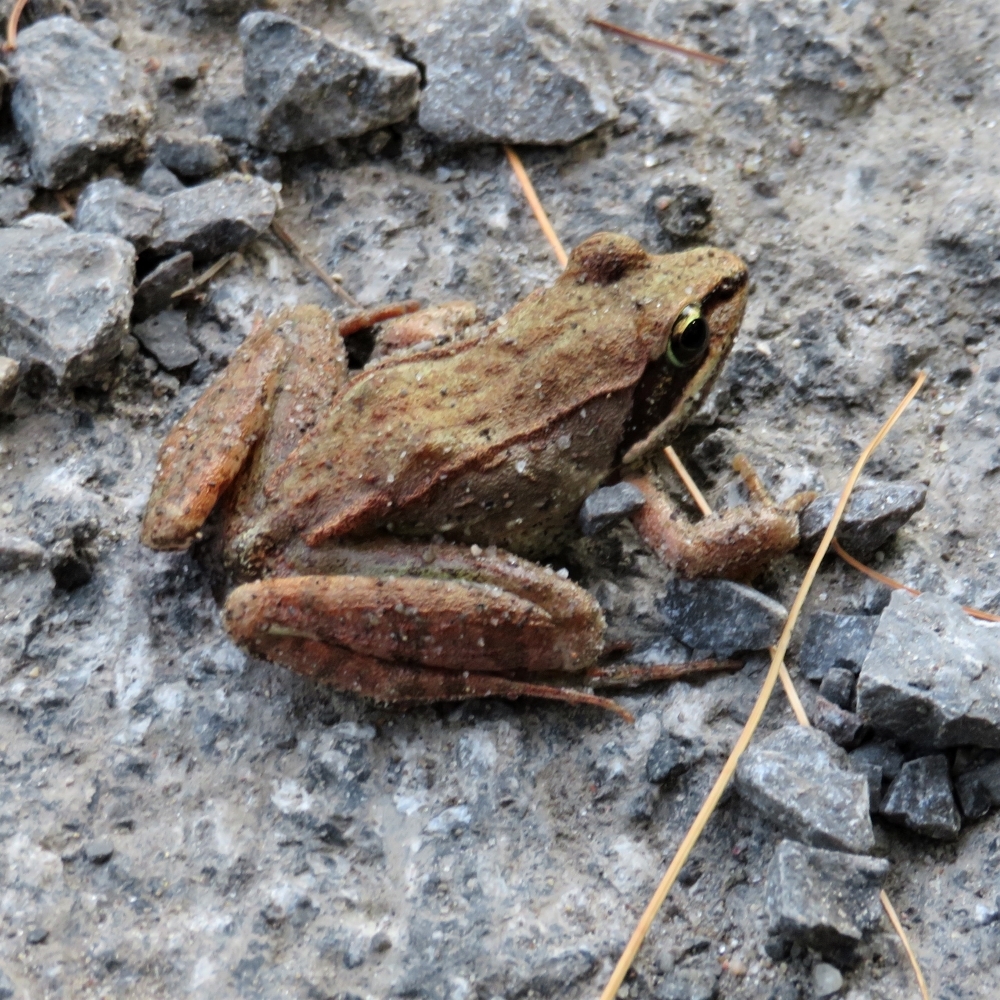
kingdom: Animalia
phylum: Chordata
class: Amphibia
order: Anura
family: Ranidae
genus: Lithobates
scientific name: Lithobates sylvaticus
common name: Wood frog
